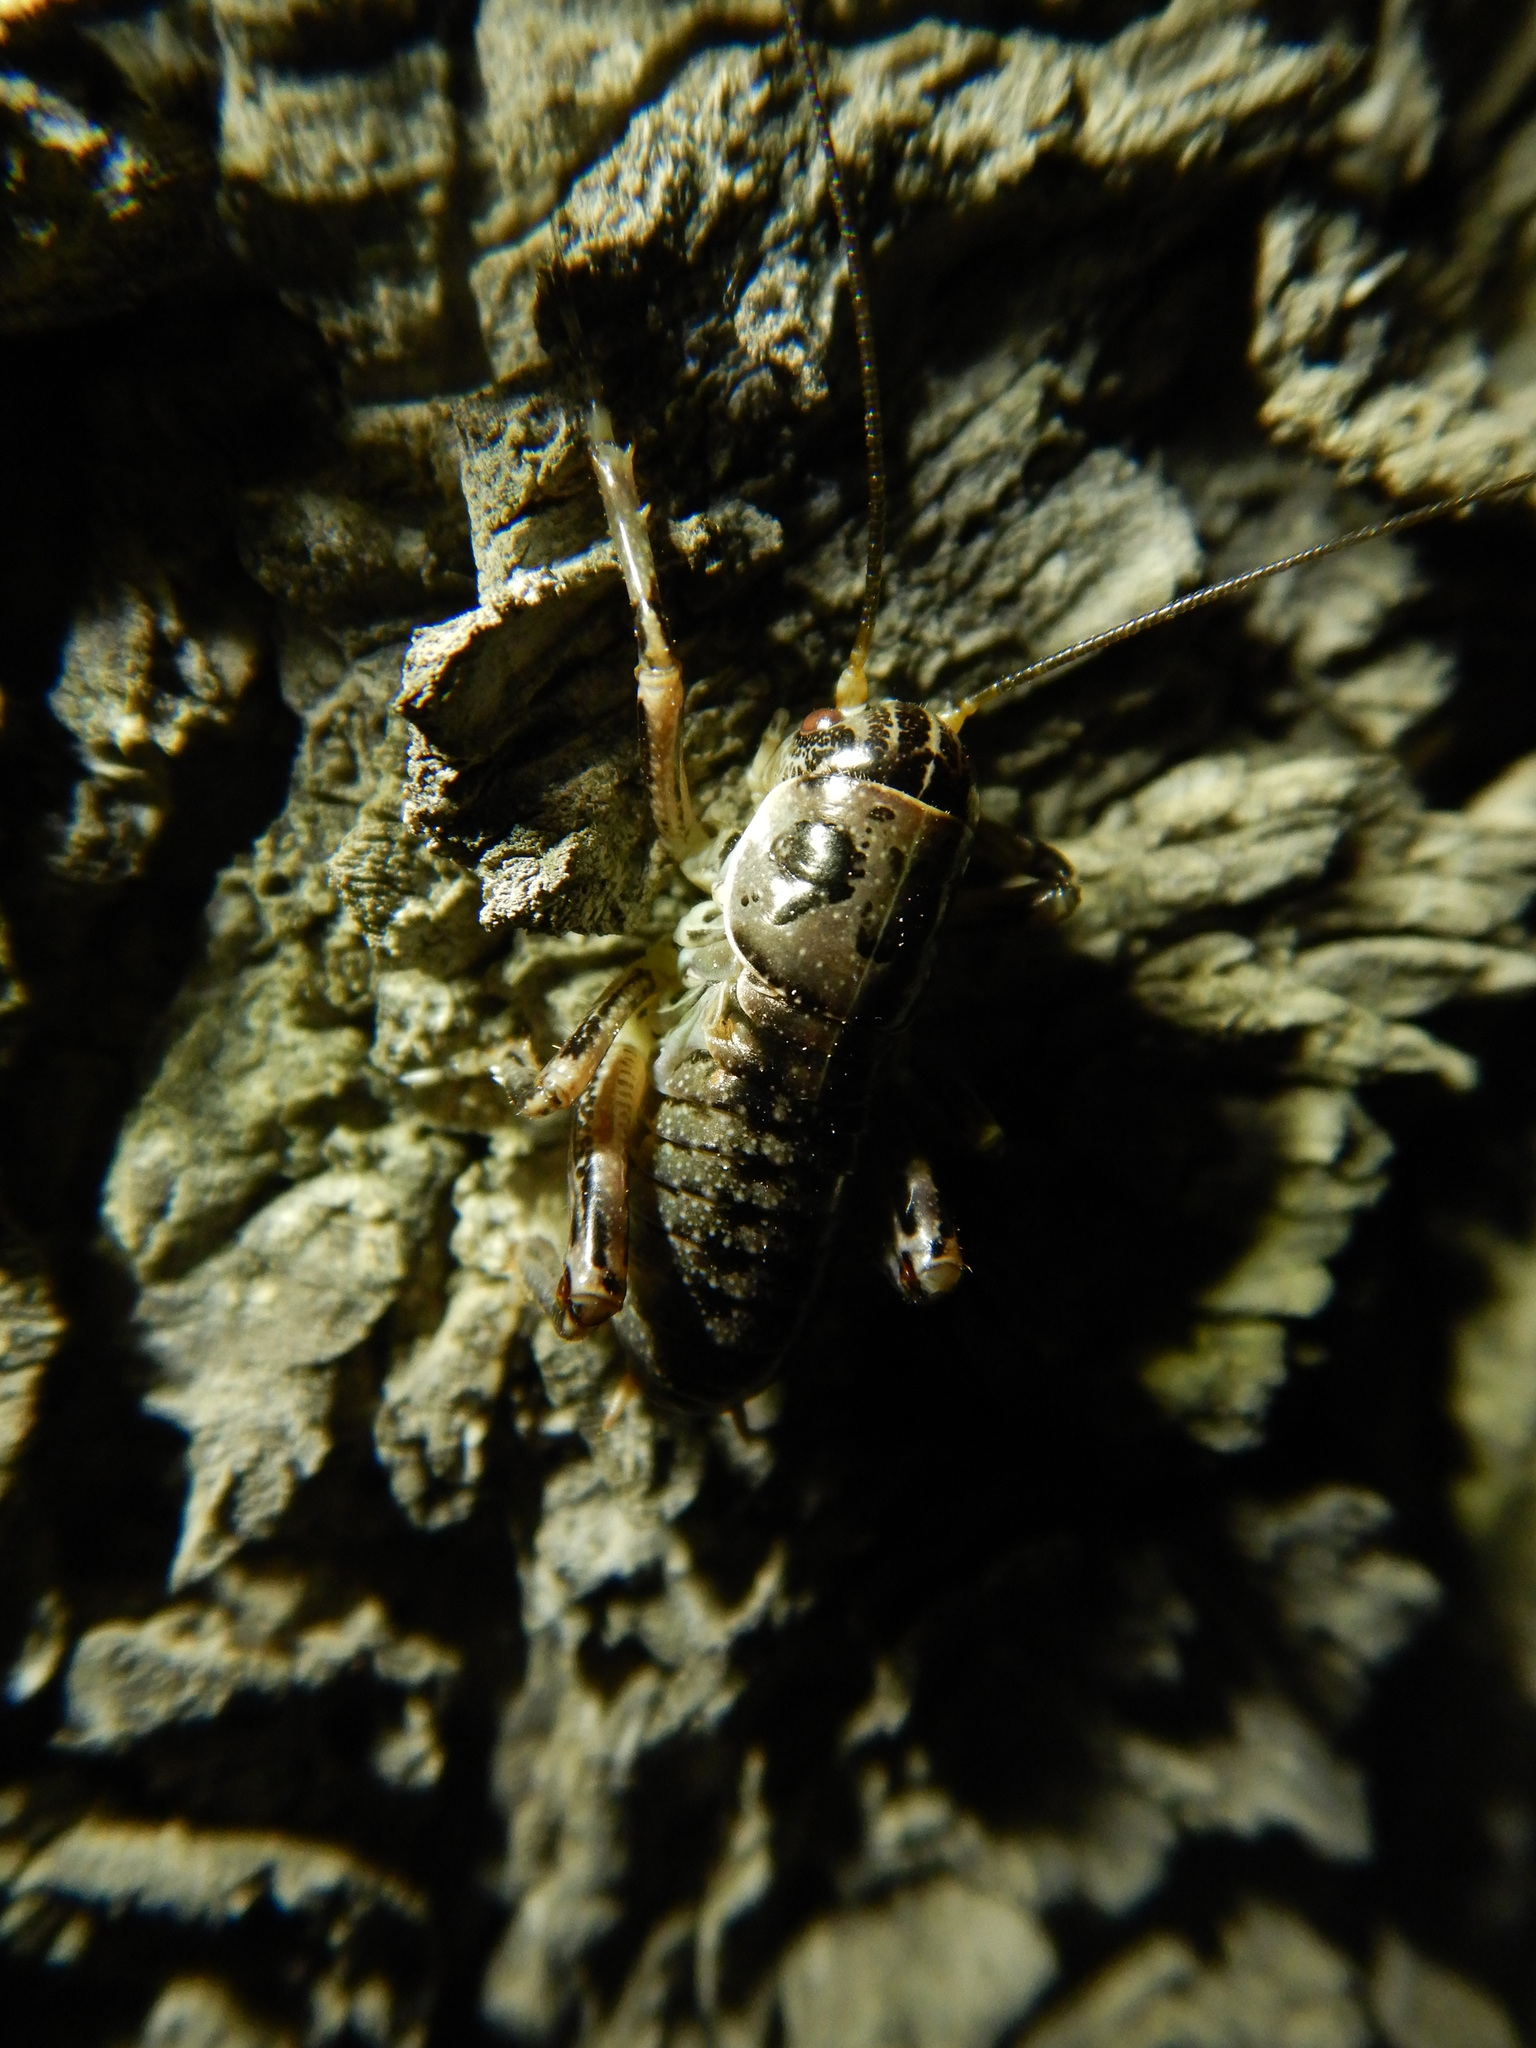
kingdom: Animalia
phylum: Arthropoda
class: Insecta
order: Orthoptera
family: Prophalangopsidae
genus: Cyphoderris
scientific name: Cyphoderris monstrosa
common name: Great grig
